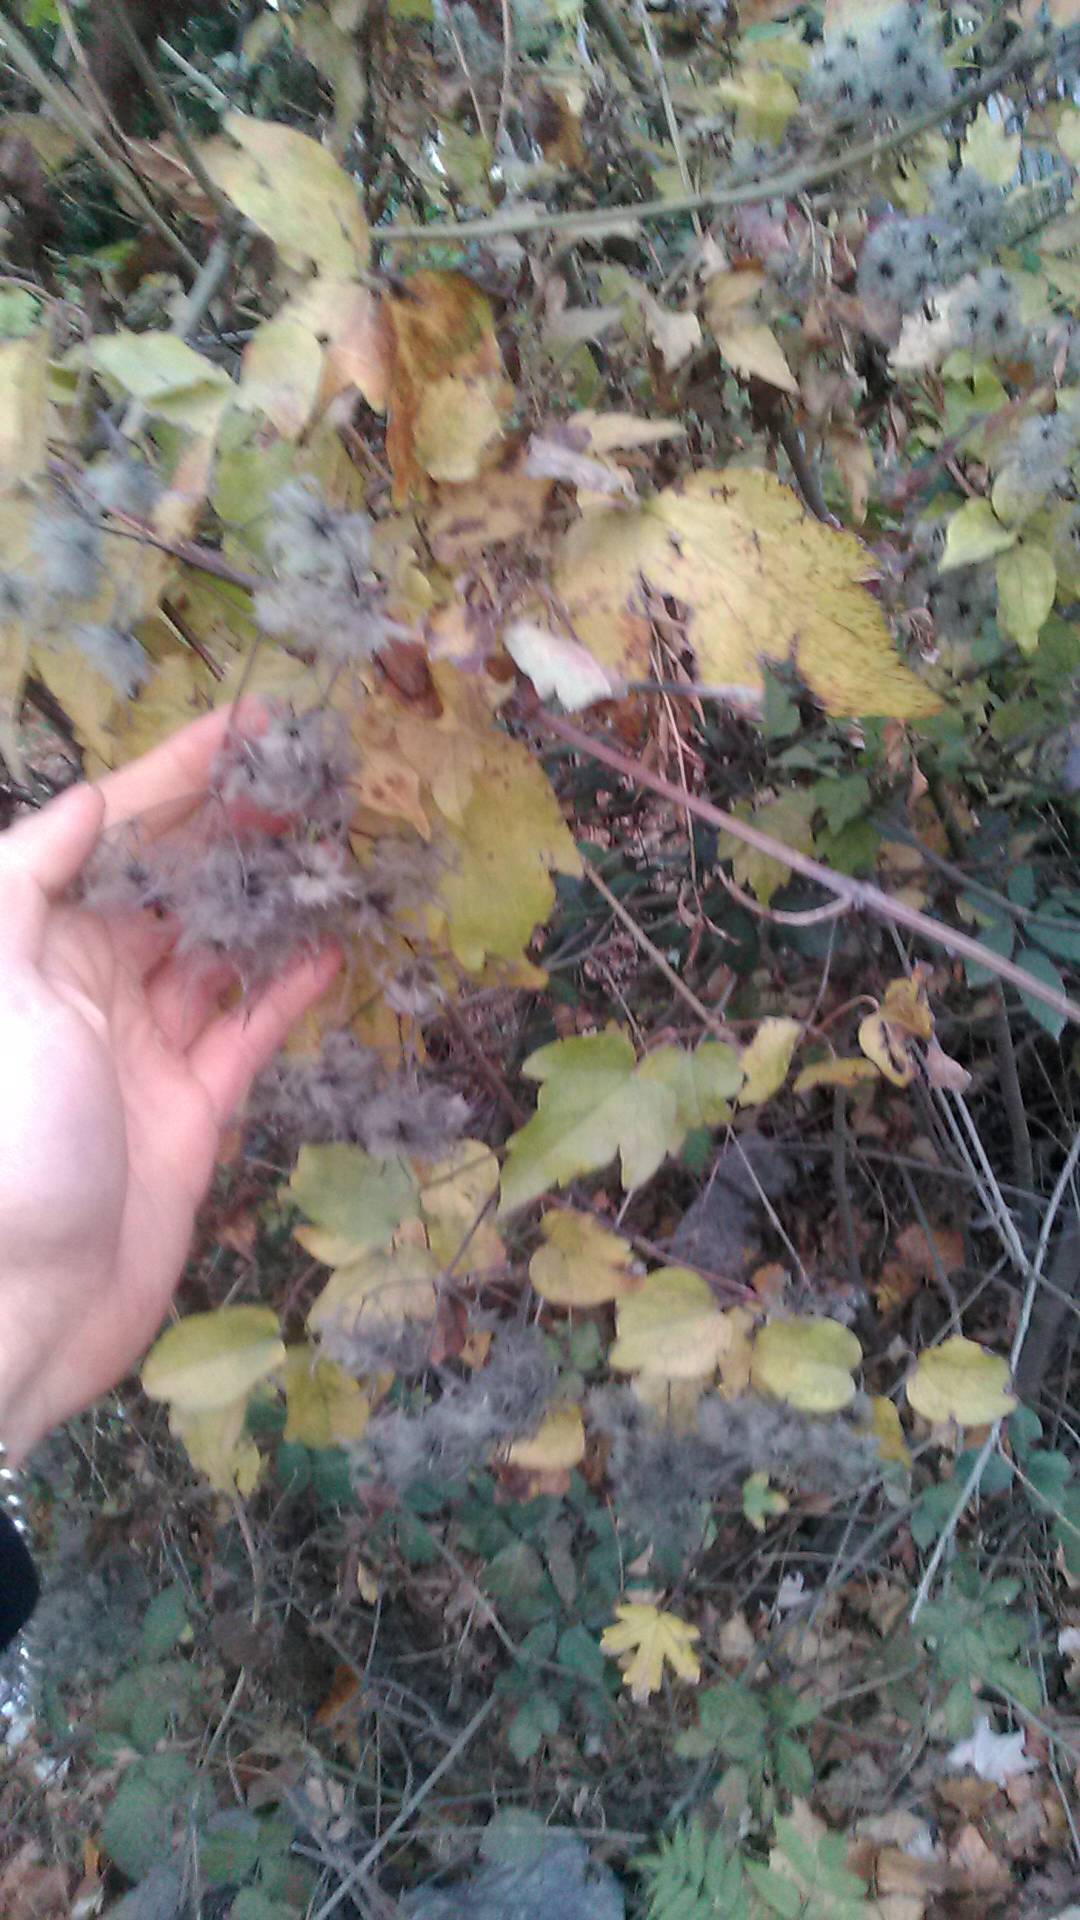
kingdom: Plantae
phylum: Tracheophyta
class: Magnoliopsida
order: Ranunculales
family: Ranunculaceae
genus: Clematis
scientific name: Clematis vitalba
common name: Evergreen clematis
